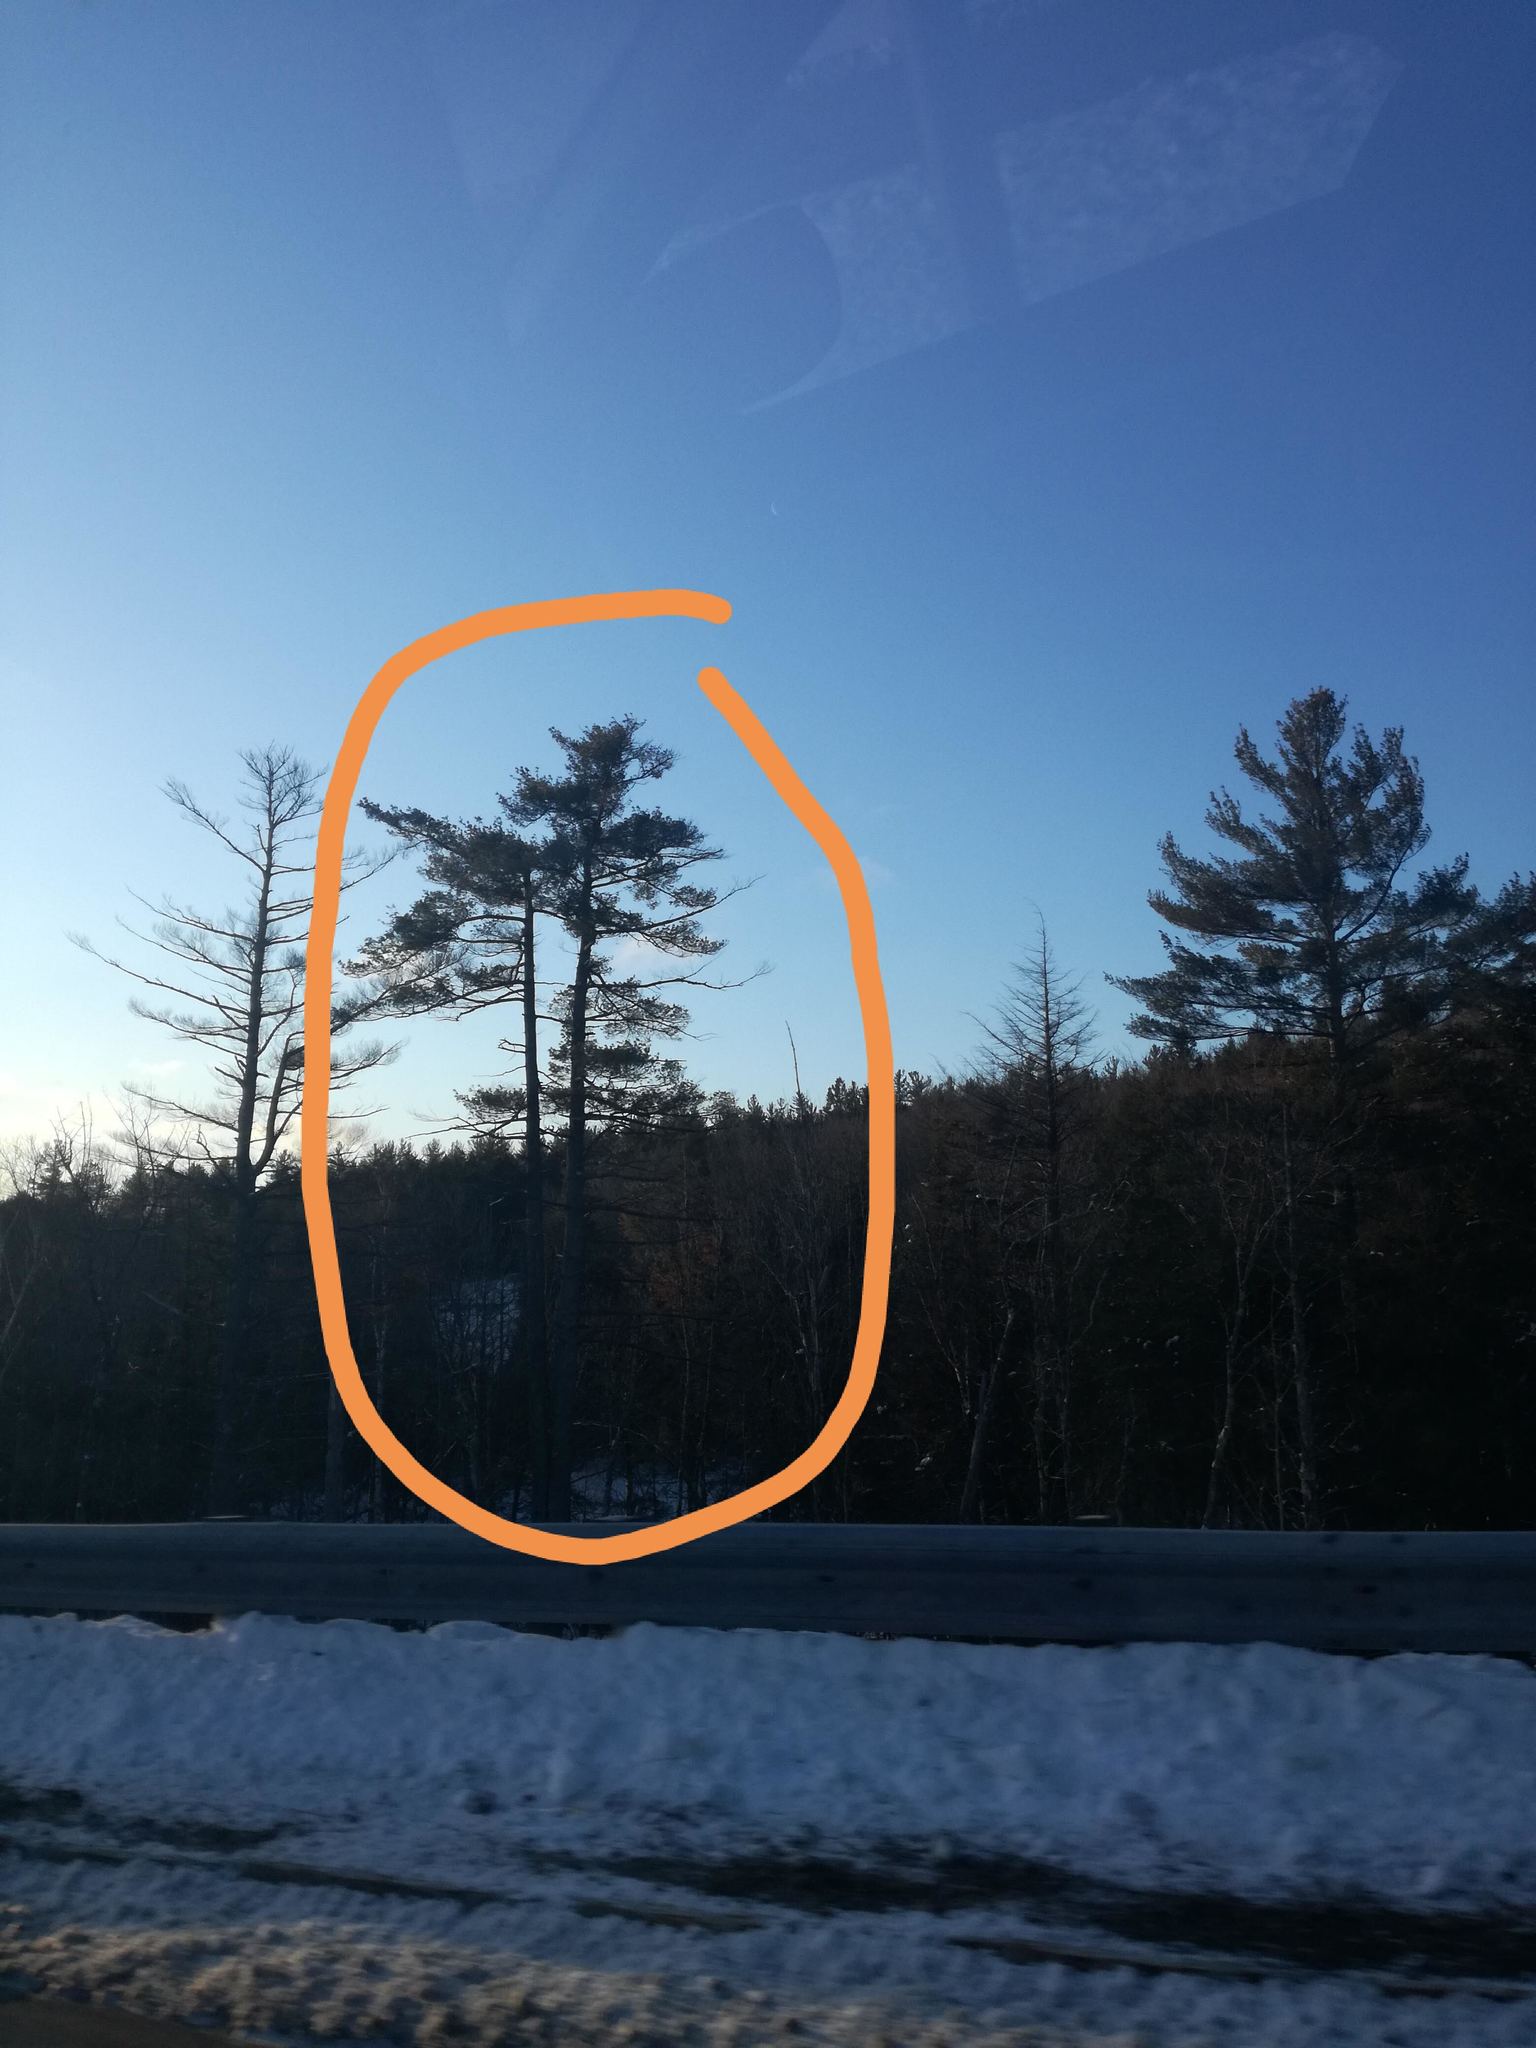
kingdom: Plantae
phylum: Tracheophyta
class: Pinopsida
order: Pinales
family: Pinaceae
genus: Pinus
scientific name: Pinus strobus
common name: Weymouth pine
